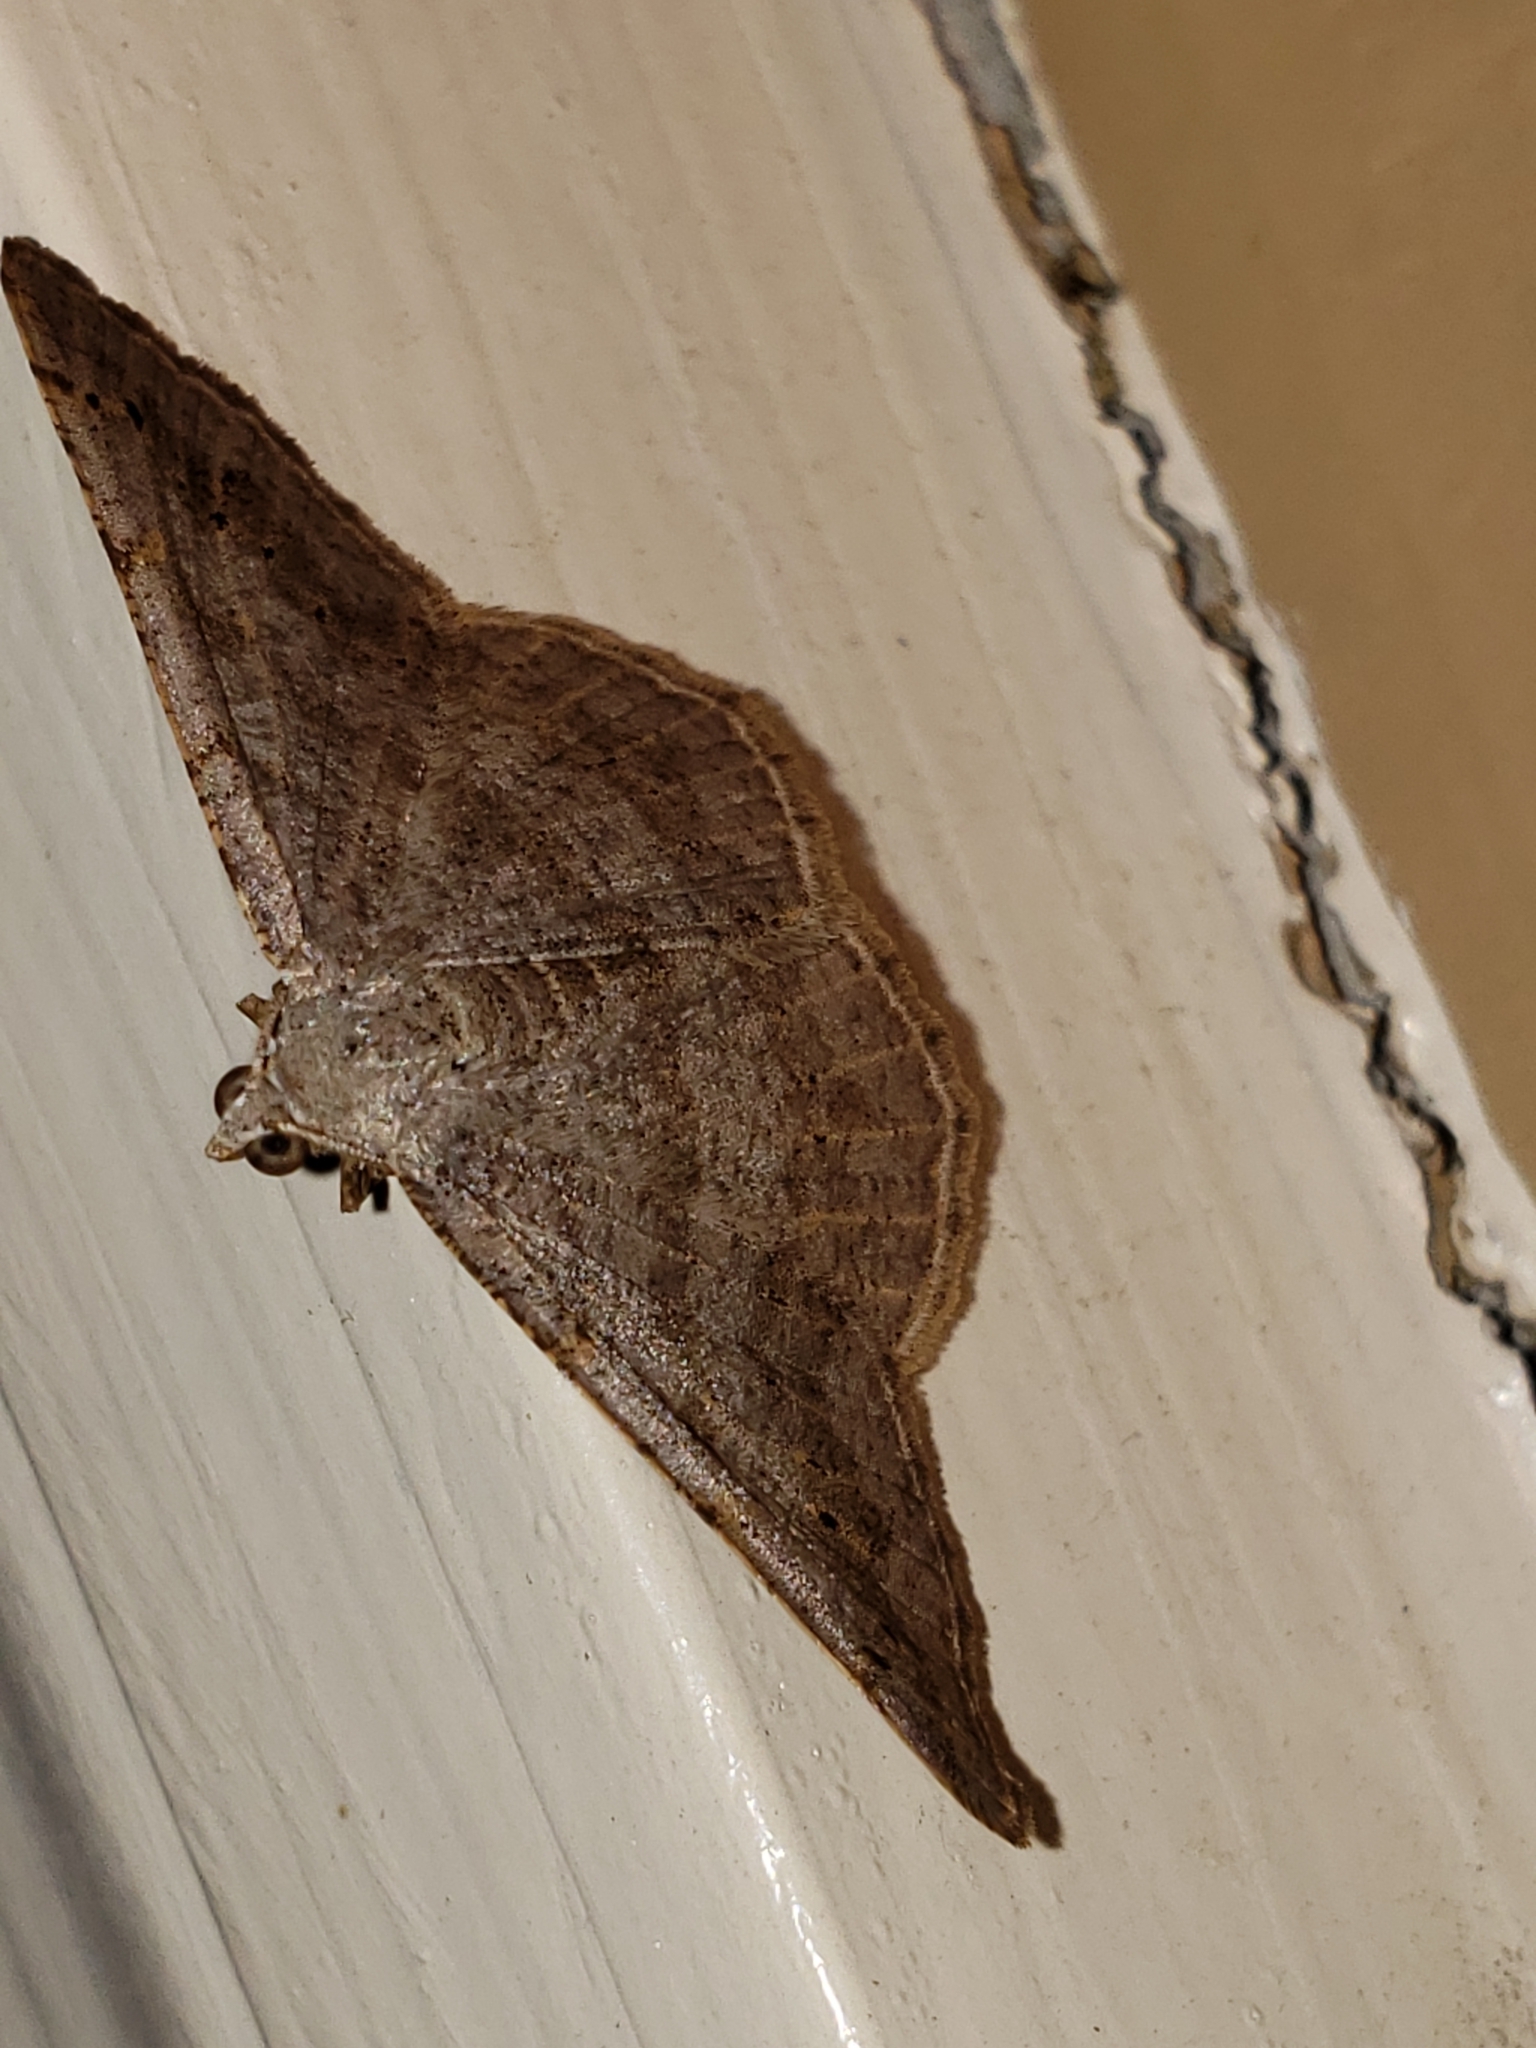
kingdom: Animalia
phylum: Arthropoda
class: Insecta
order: Lepidoptera
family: Geometridae
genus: Digrammia
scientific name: Digrammia ocellinata
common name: Faint-spotted angle
